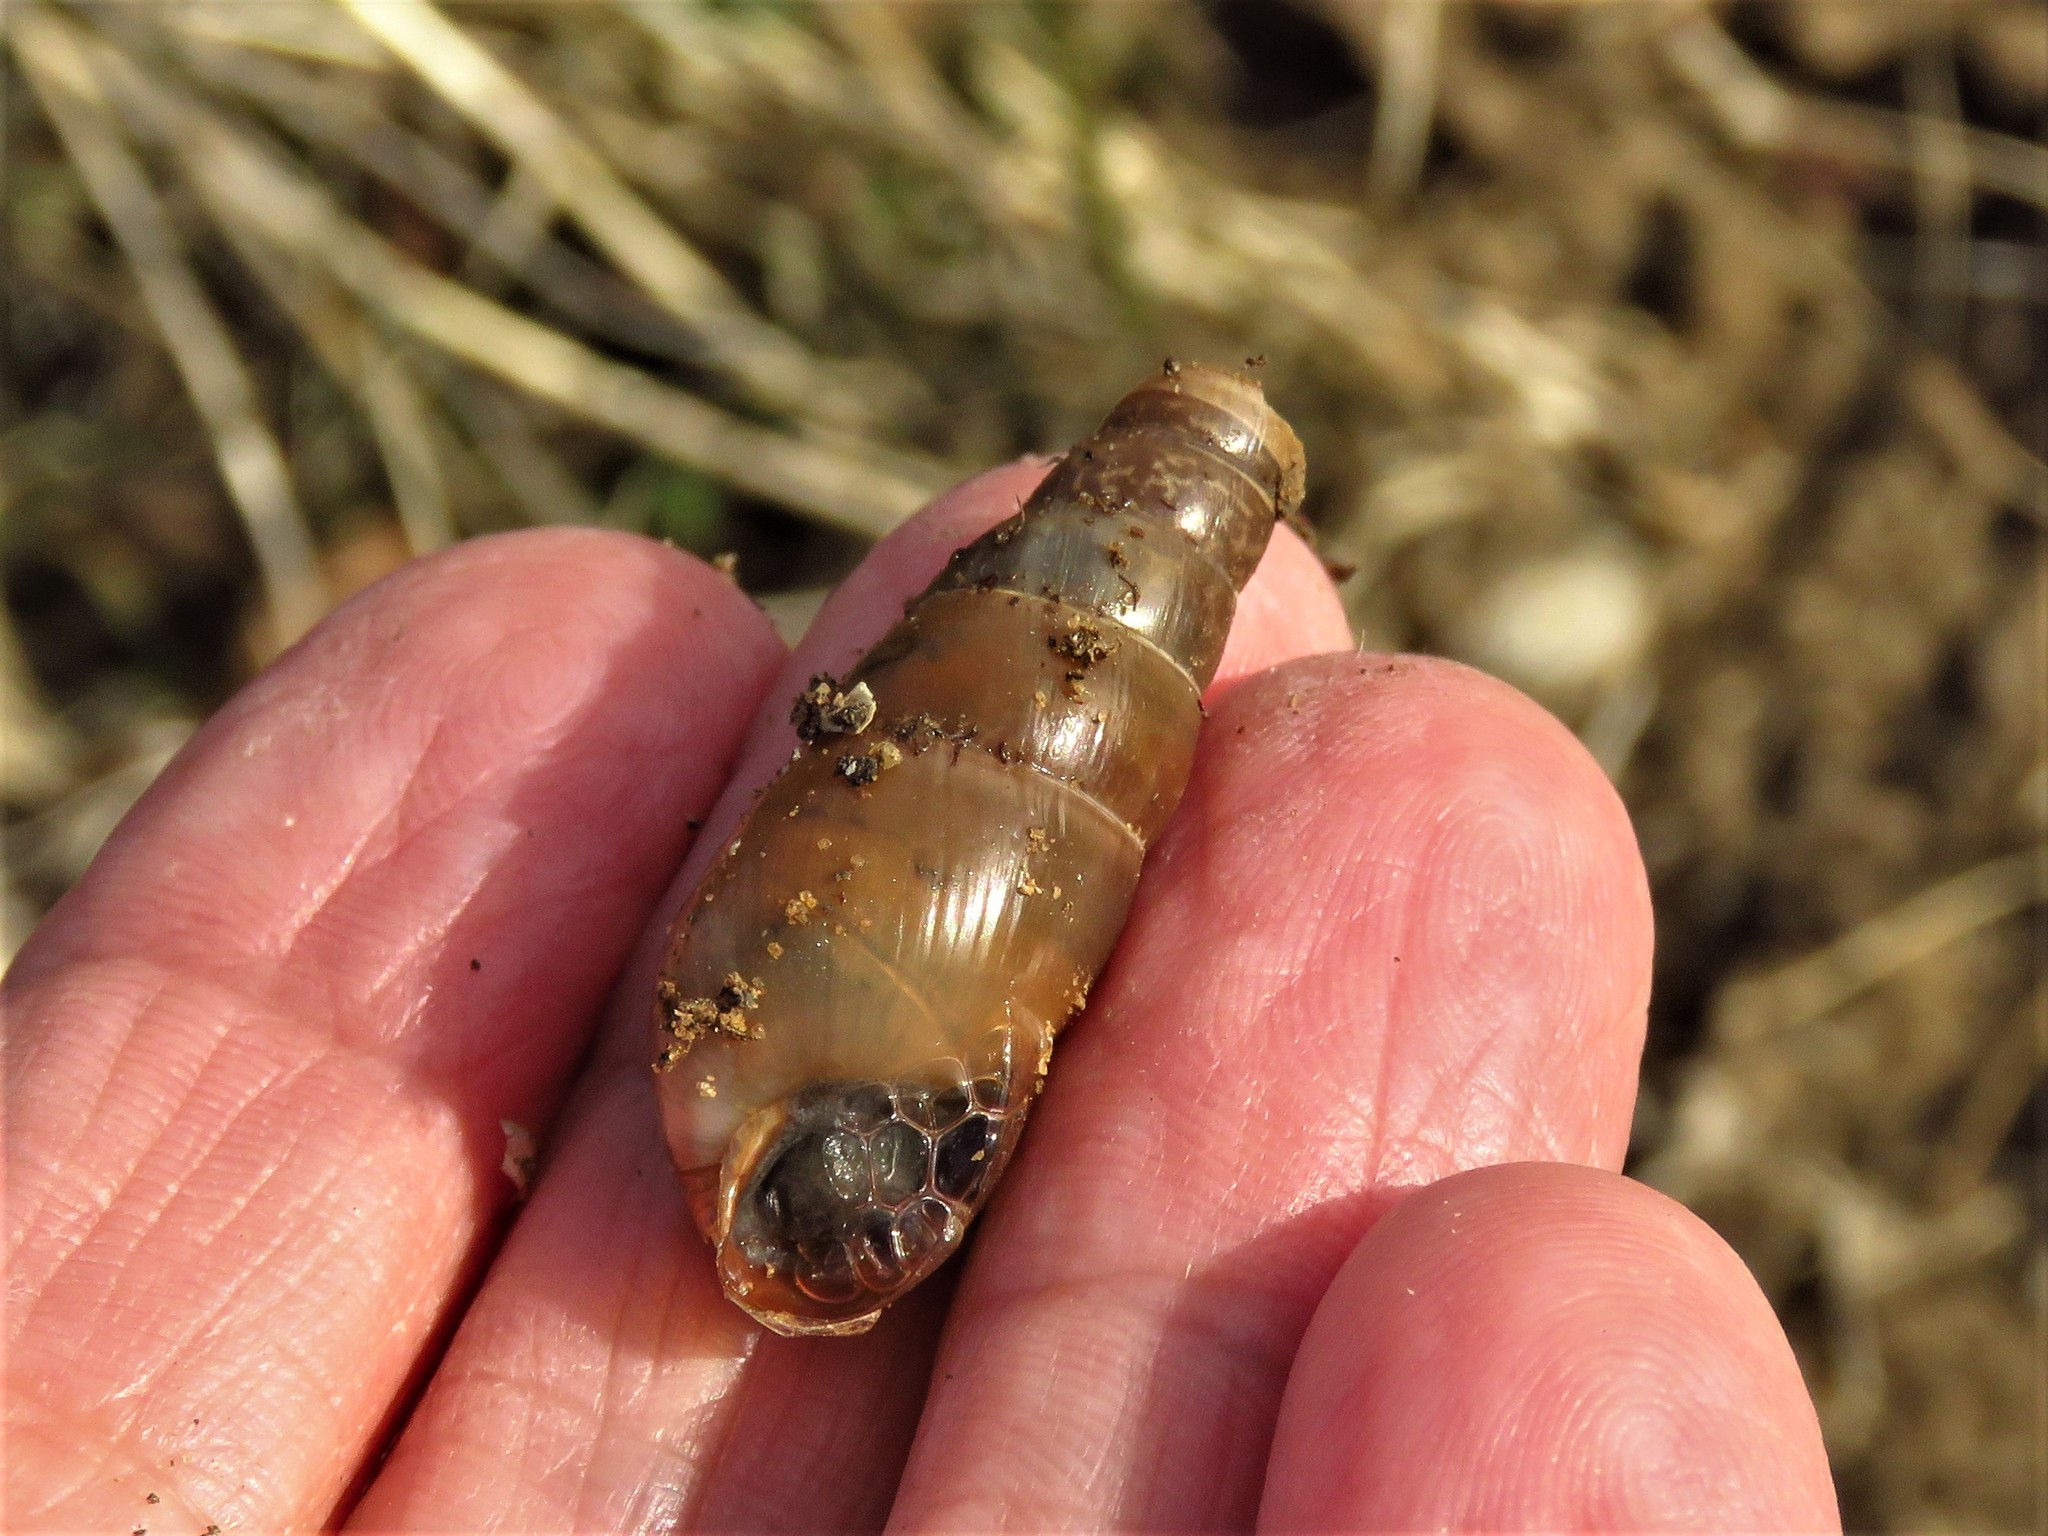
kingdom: Animalia
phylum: Mollusca
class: Gastropoda
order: Stylommatophora
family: Achatinidae
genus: Rumina
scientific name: Rumina decollata
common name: Decollate snail
